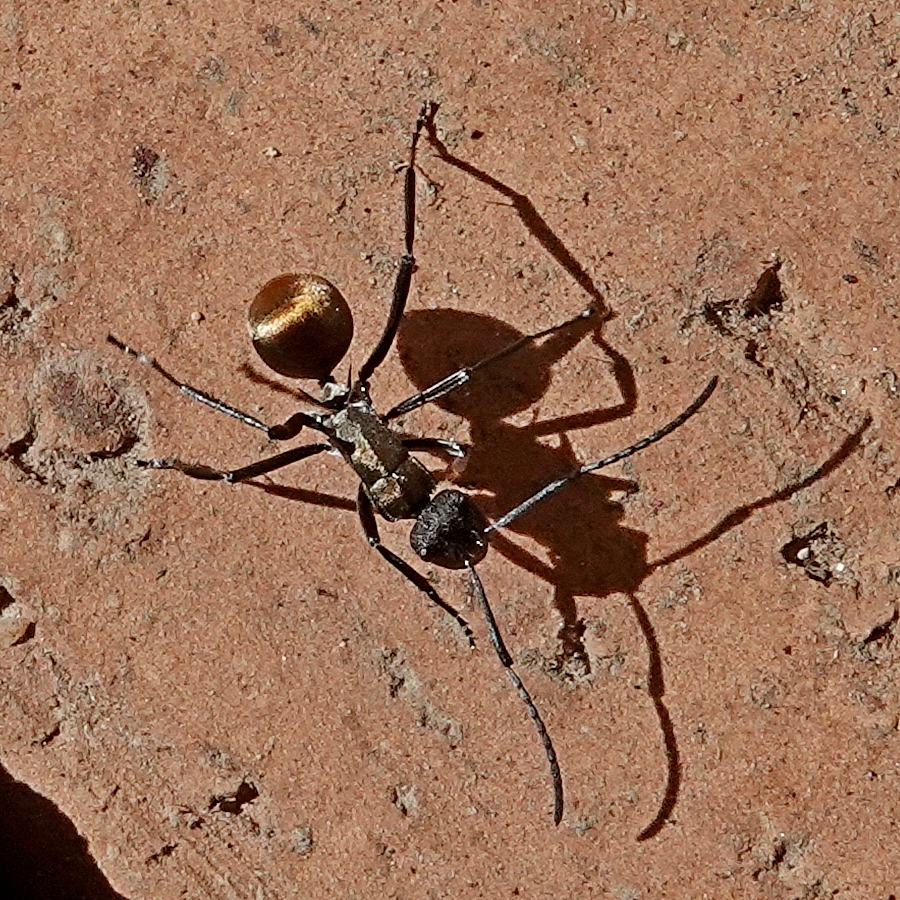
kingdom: Animalia
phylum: Arthropoda
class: Insecta
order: Hymenoptera
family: Formicidae
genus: Polyrhachis
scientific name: Polyrhachis ammon
